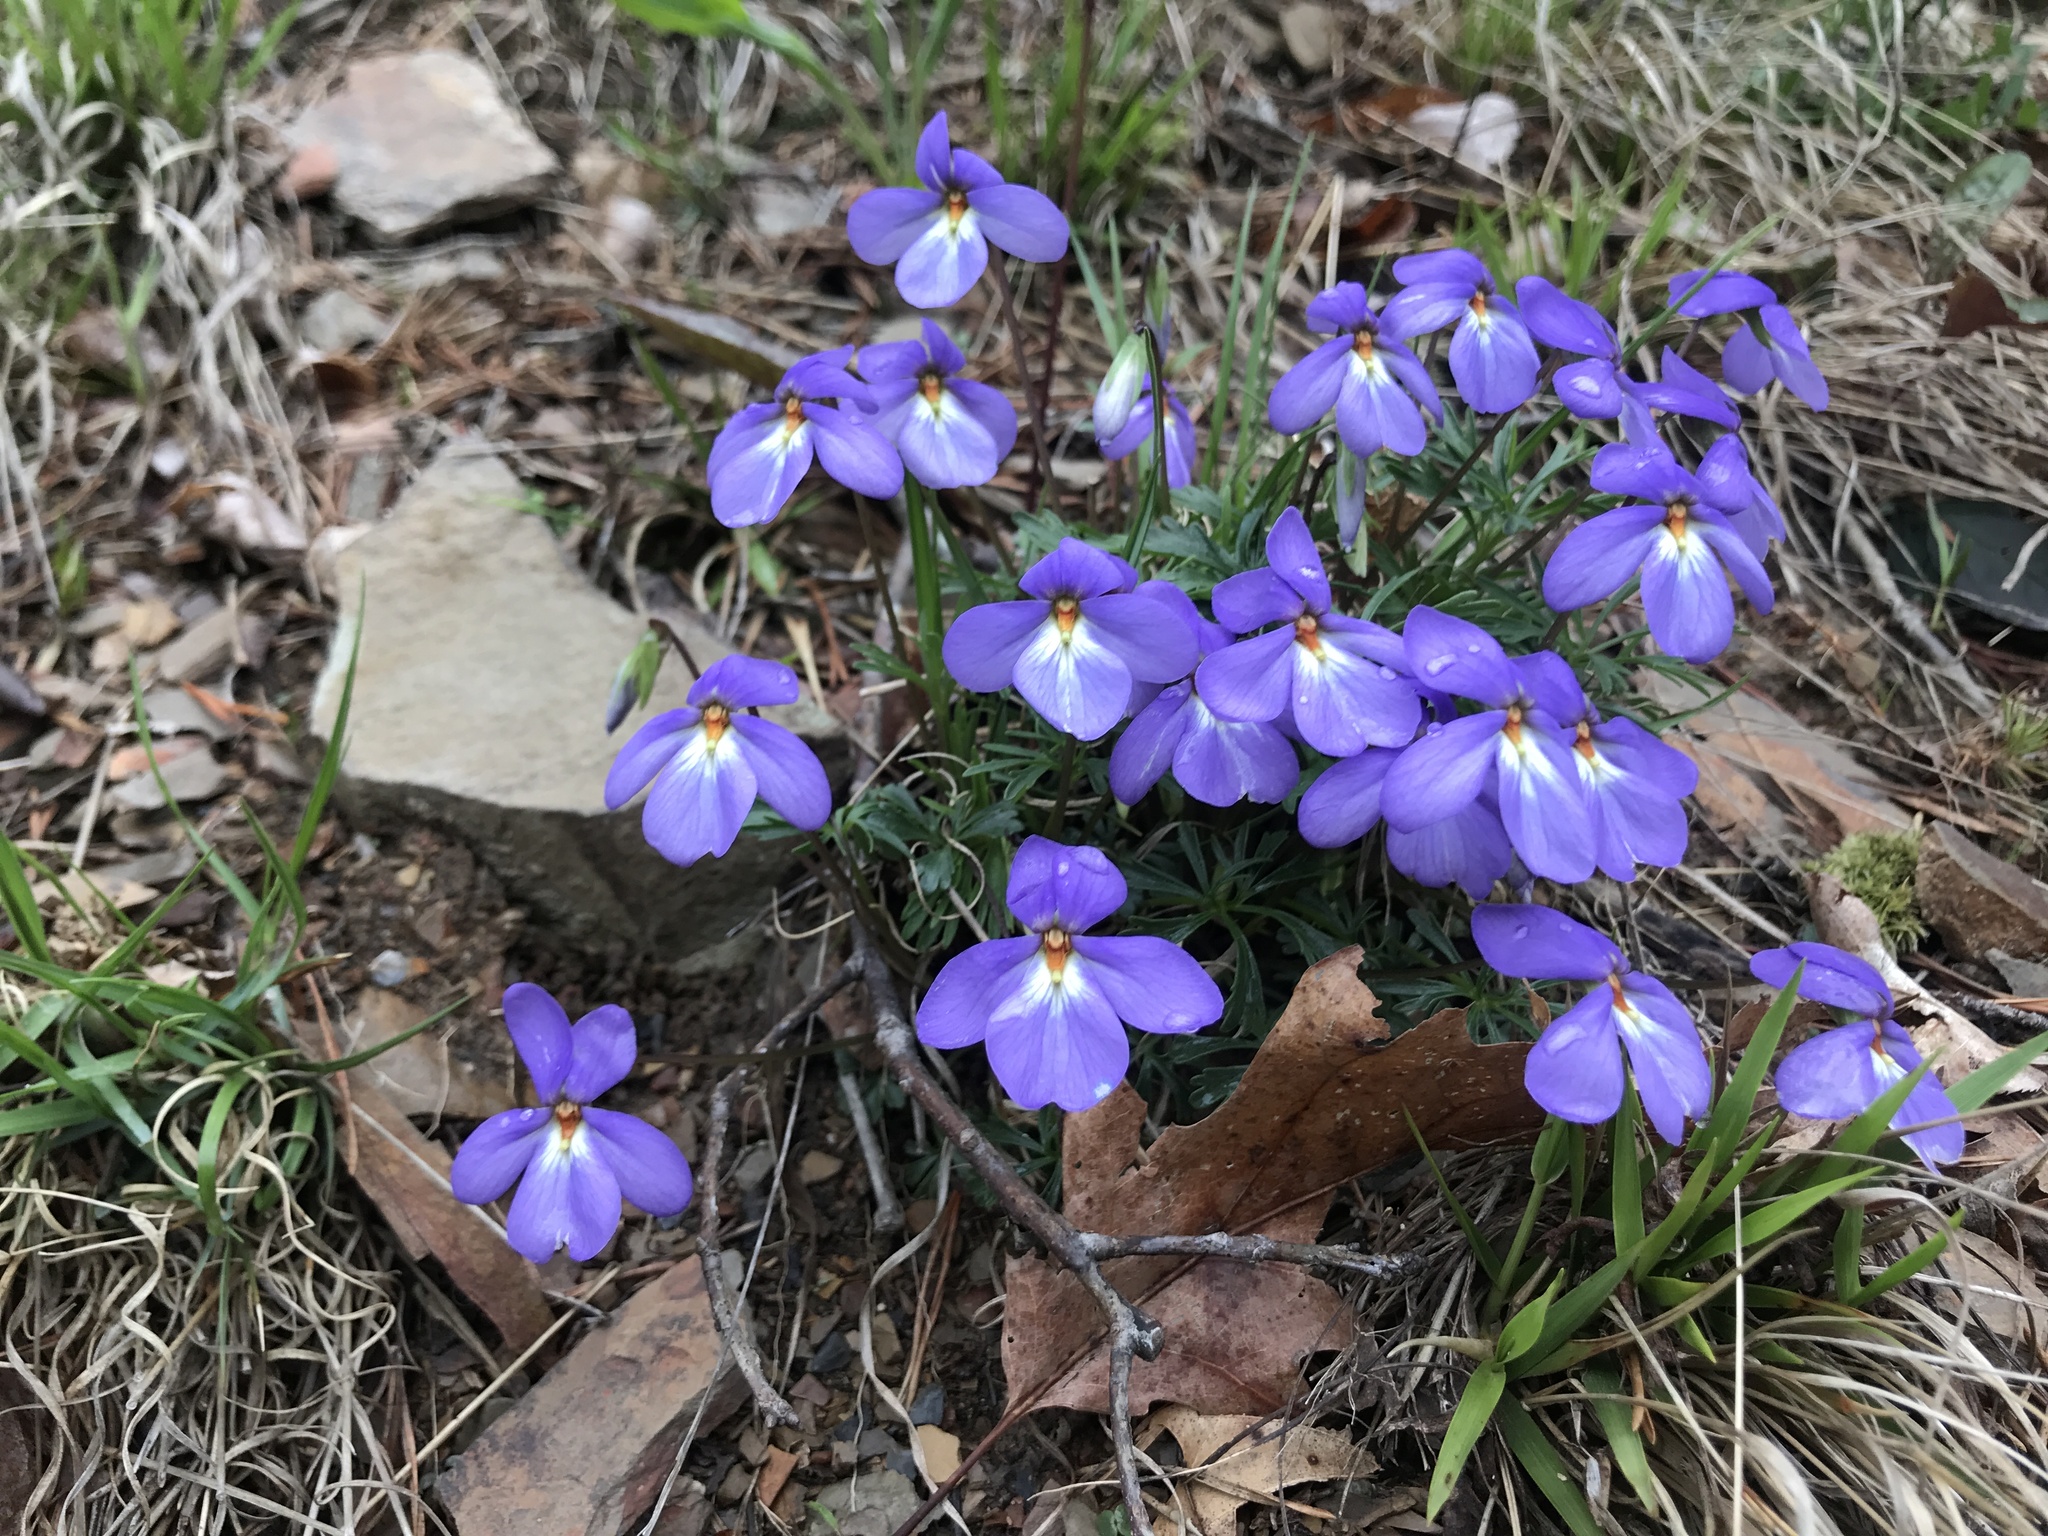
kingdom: Plantae
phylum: Tracheophyta
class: Magnoliopsida
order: Malpighiales
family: Violaceae
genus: Viola
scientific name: Viola pedata
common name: Pansy violet
